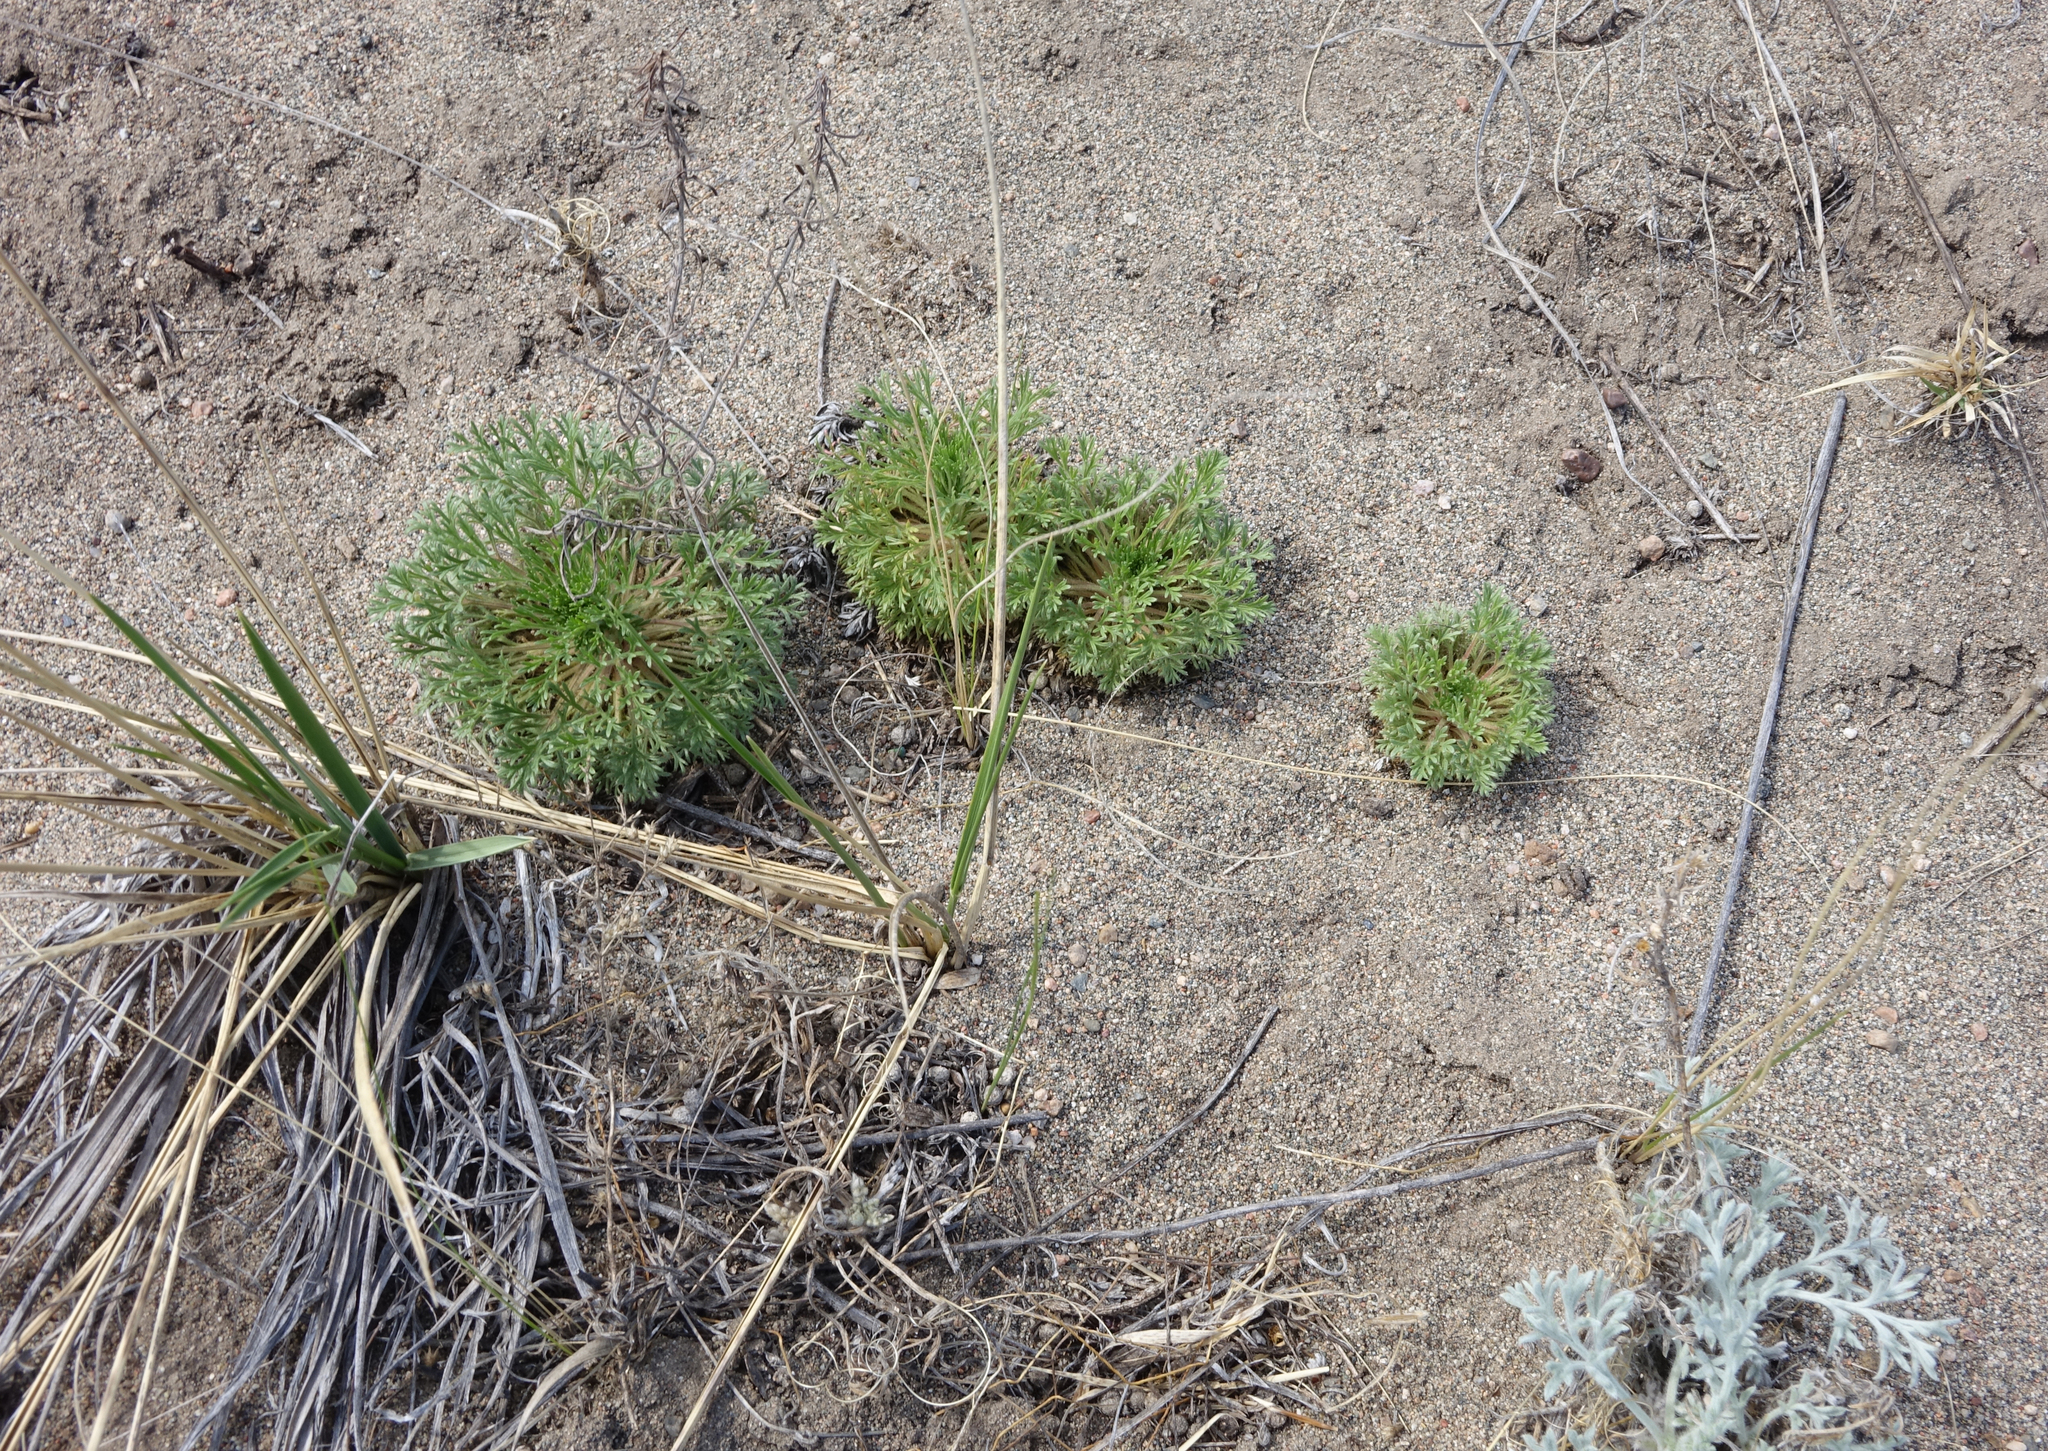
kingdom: Plantae
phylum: Tracheophyta
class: Magnoliopsida
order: Rosales
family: Rosaceae
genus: Chamaerhodos
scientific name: Chamaerhodos erecta
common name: American chamaerhodos
